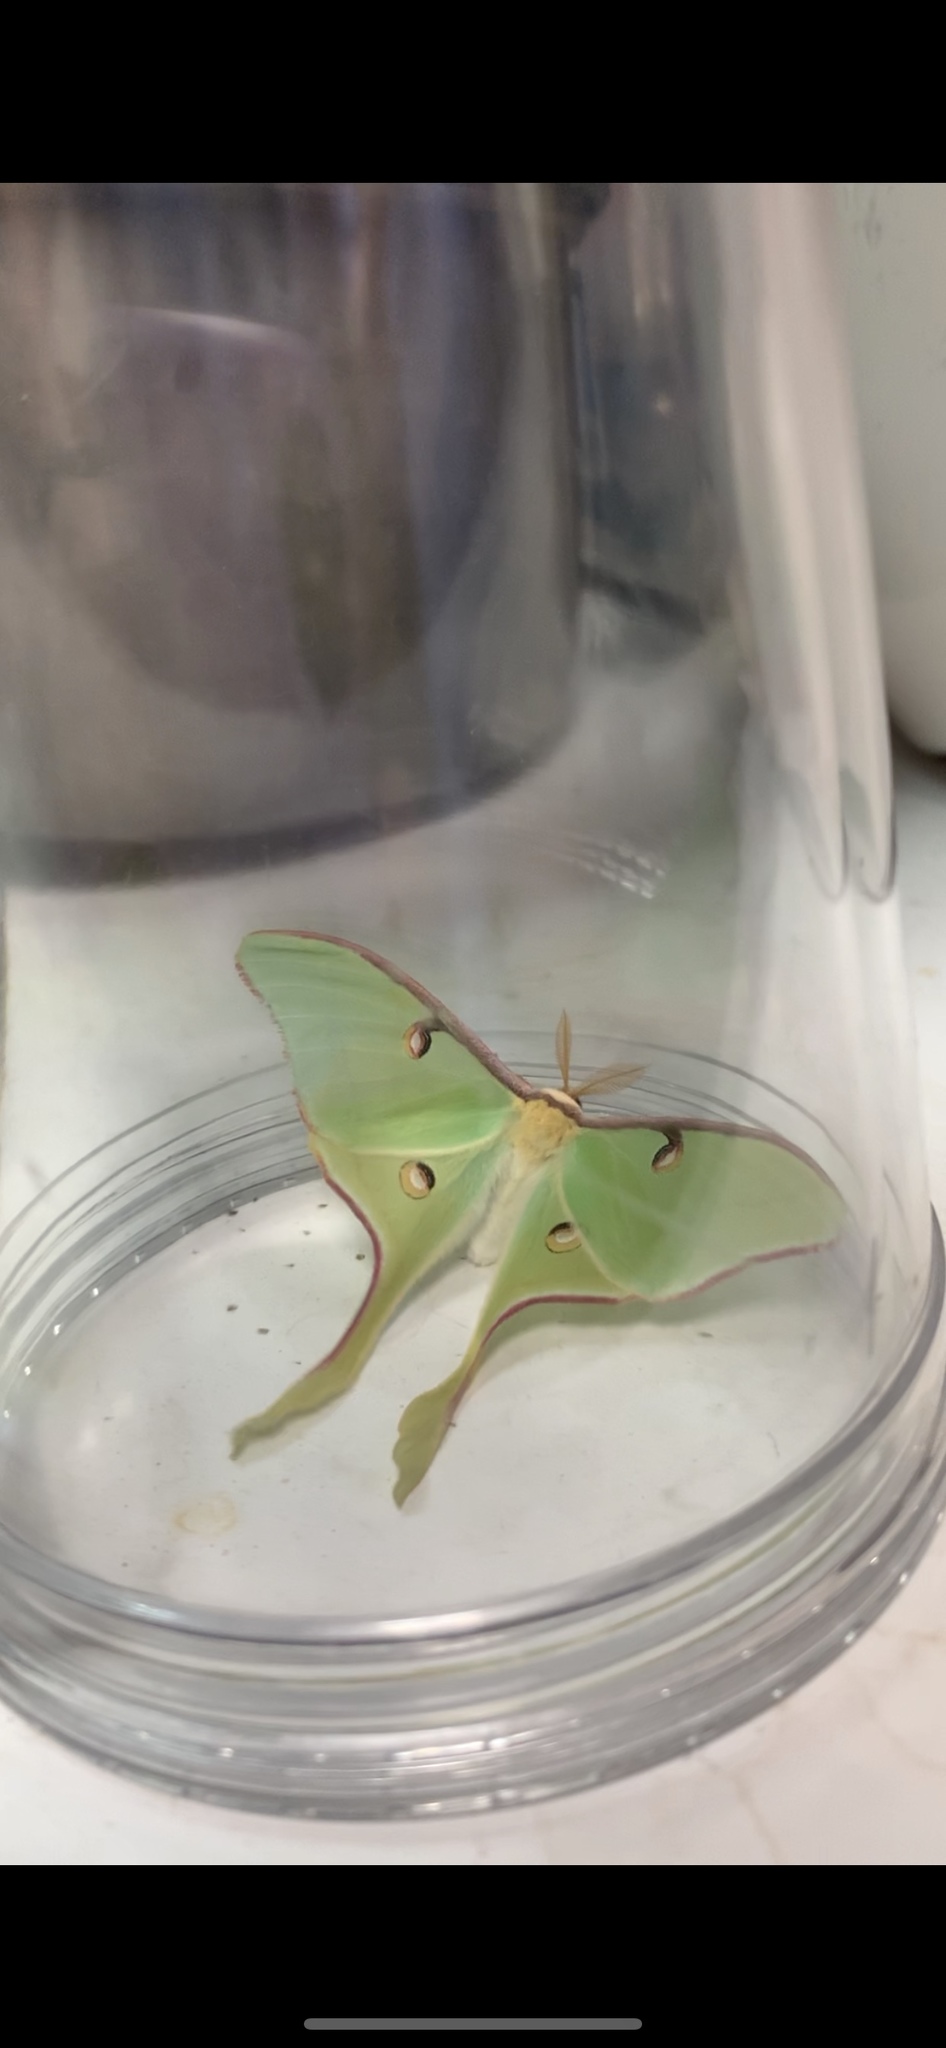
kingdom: Animalia
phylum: Arthropoda
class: Insecta
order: Lepidoptera
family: Saturniidae
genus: Actias
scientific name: Actias luna
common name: Luna moth
